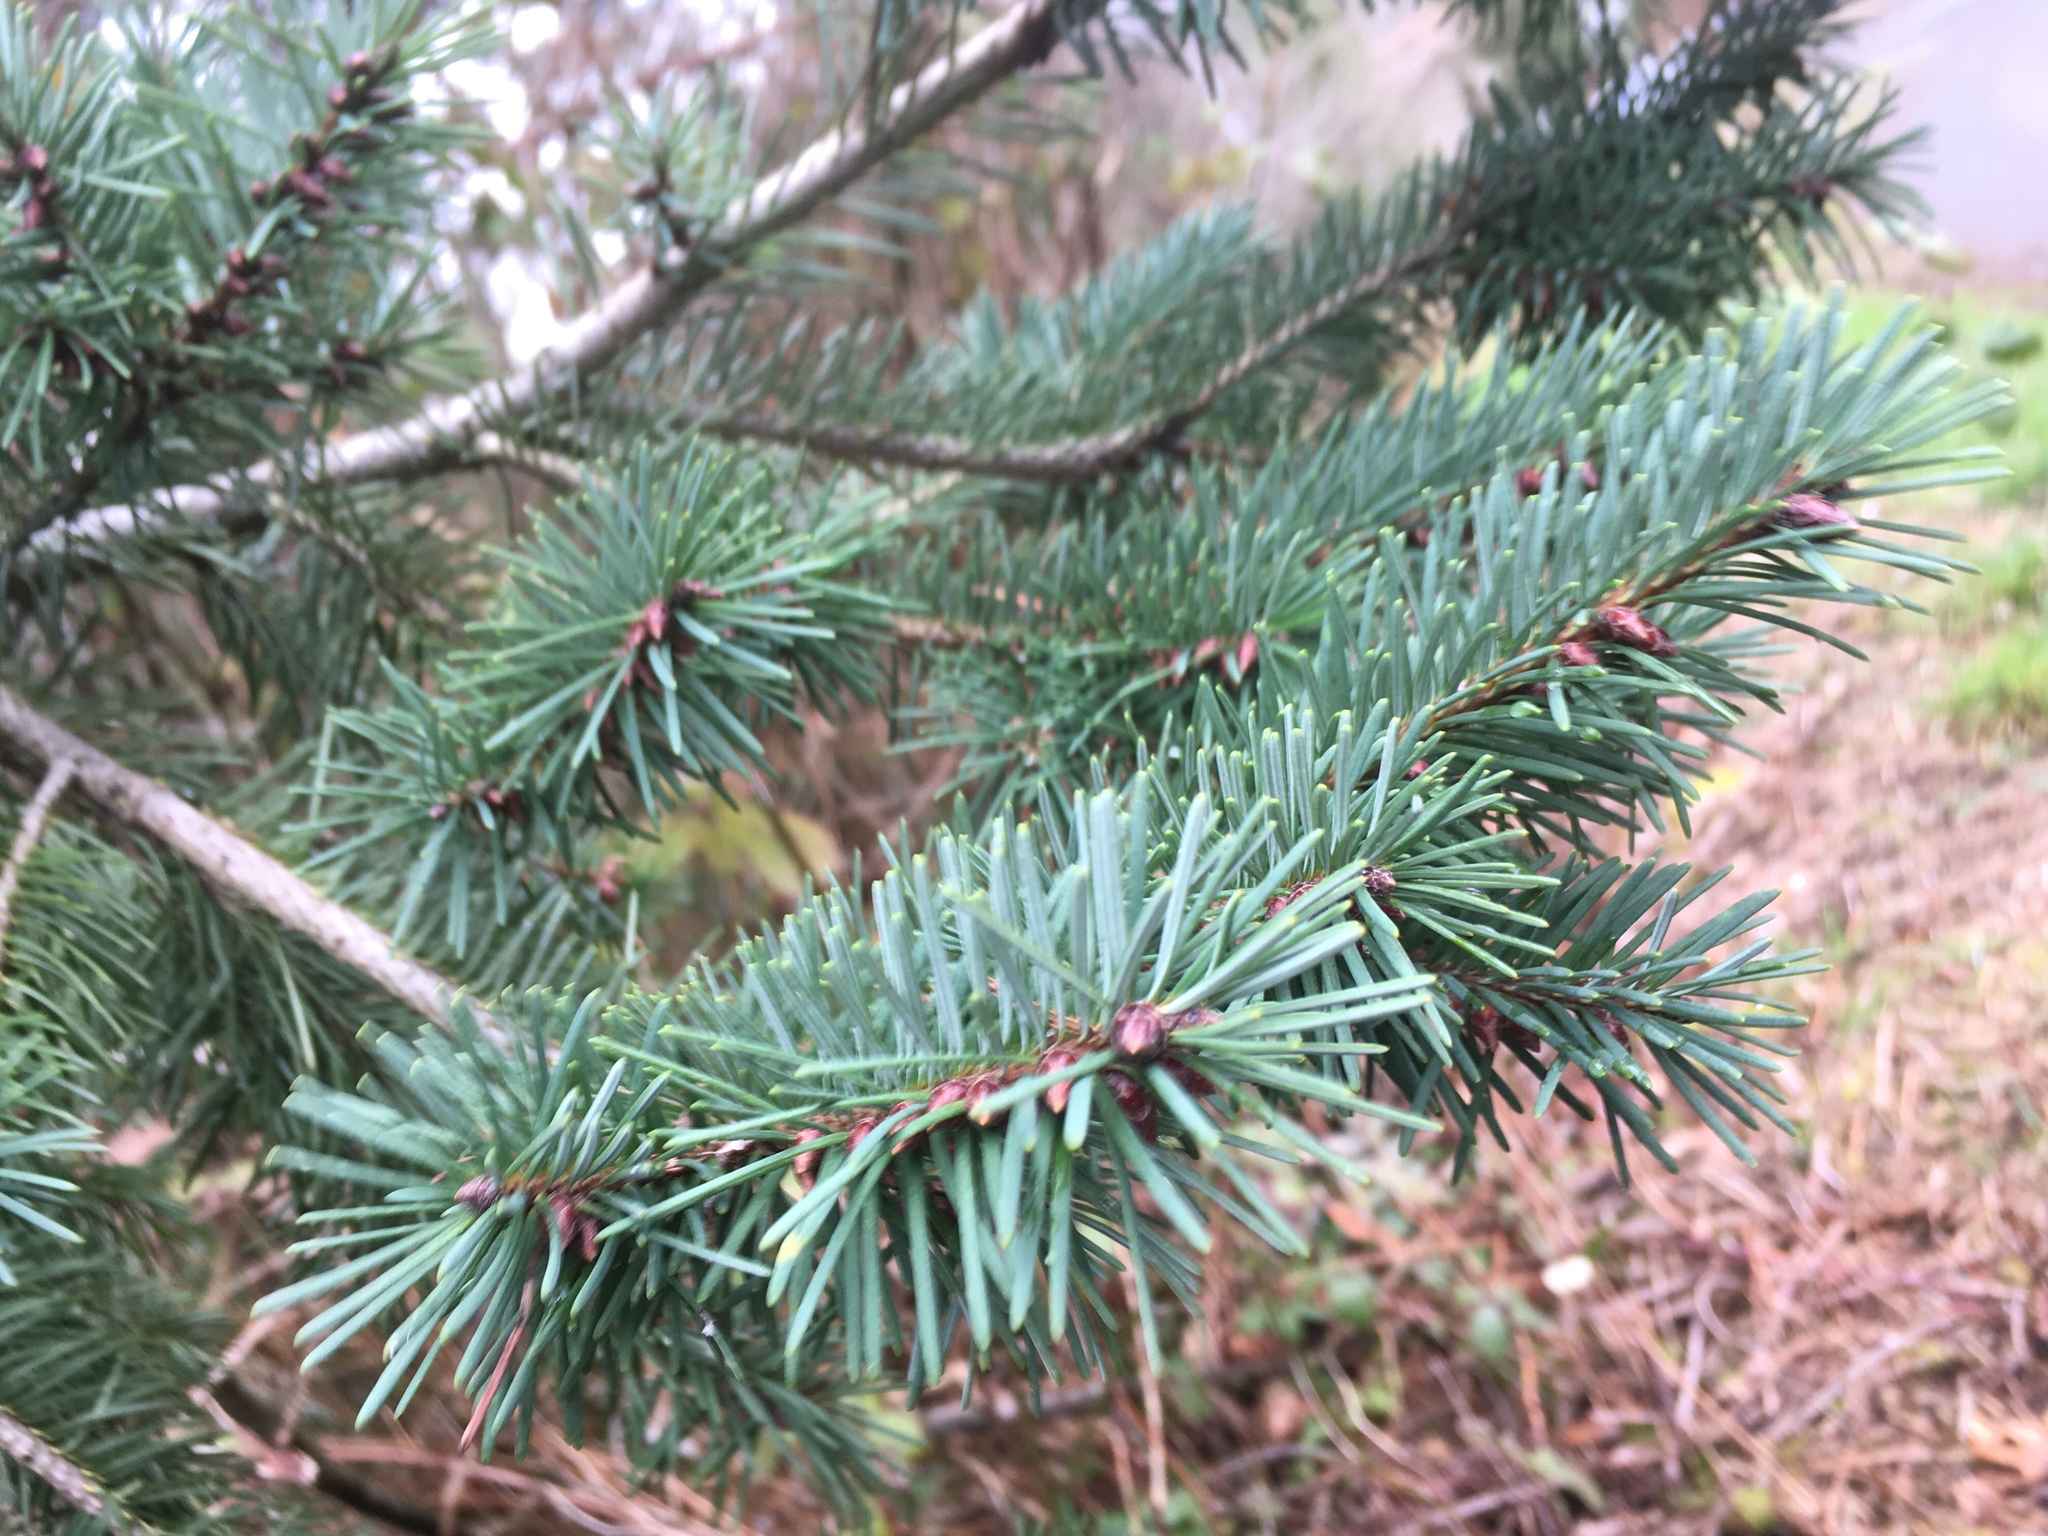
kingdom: Plantae
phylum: Tracheophyta
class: Pinopsida
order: Pinales
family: Pinaceae
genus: Pseudotsuga
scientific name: Pseudotsuga menziesii
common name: Douglas fir
